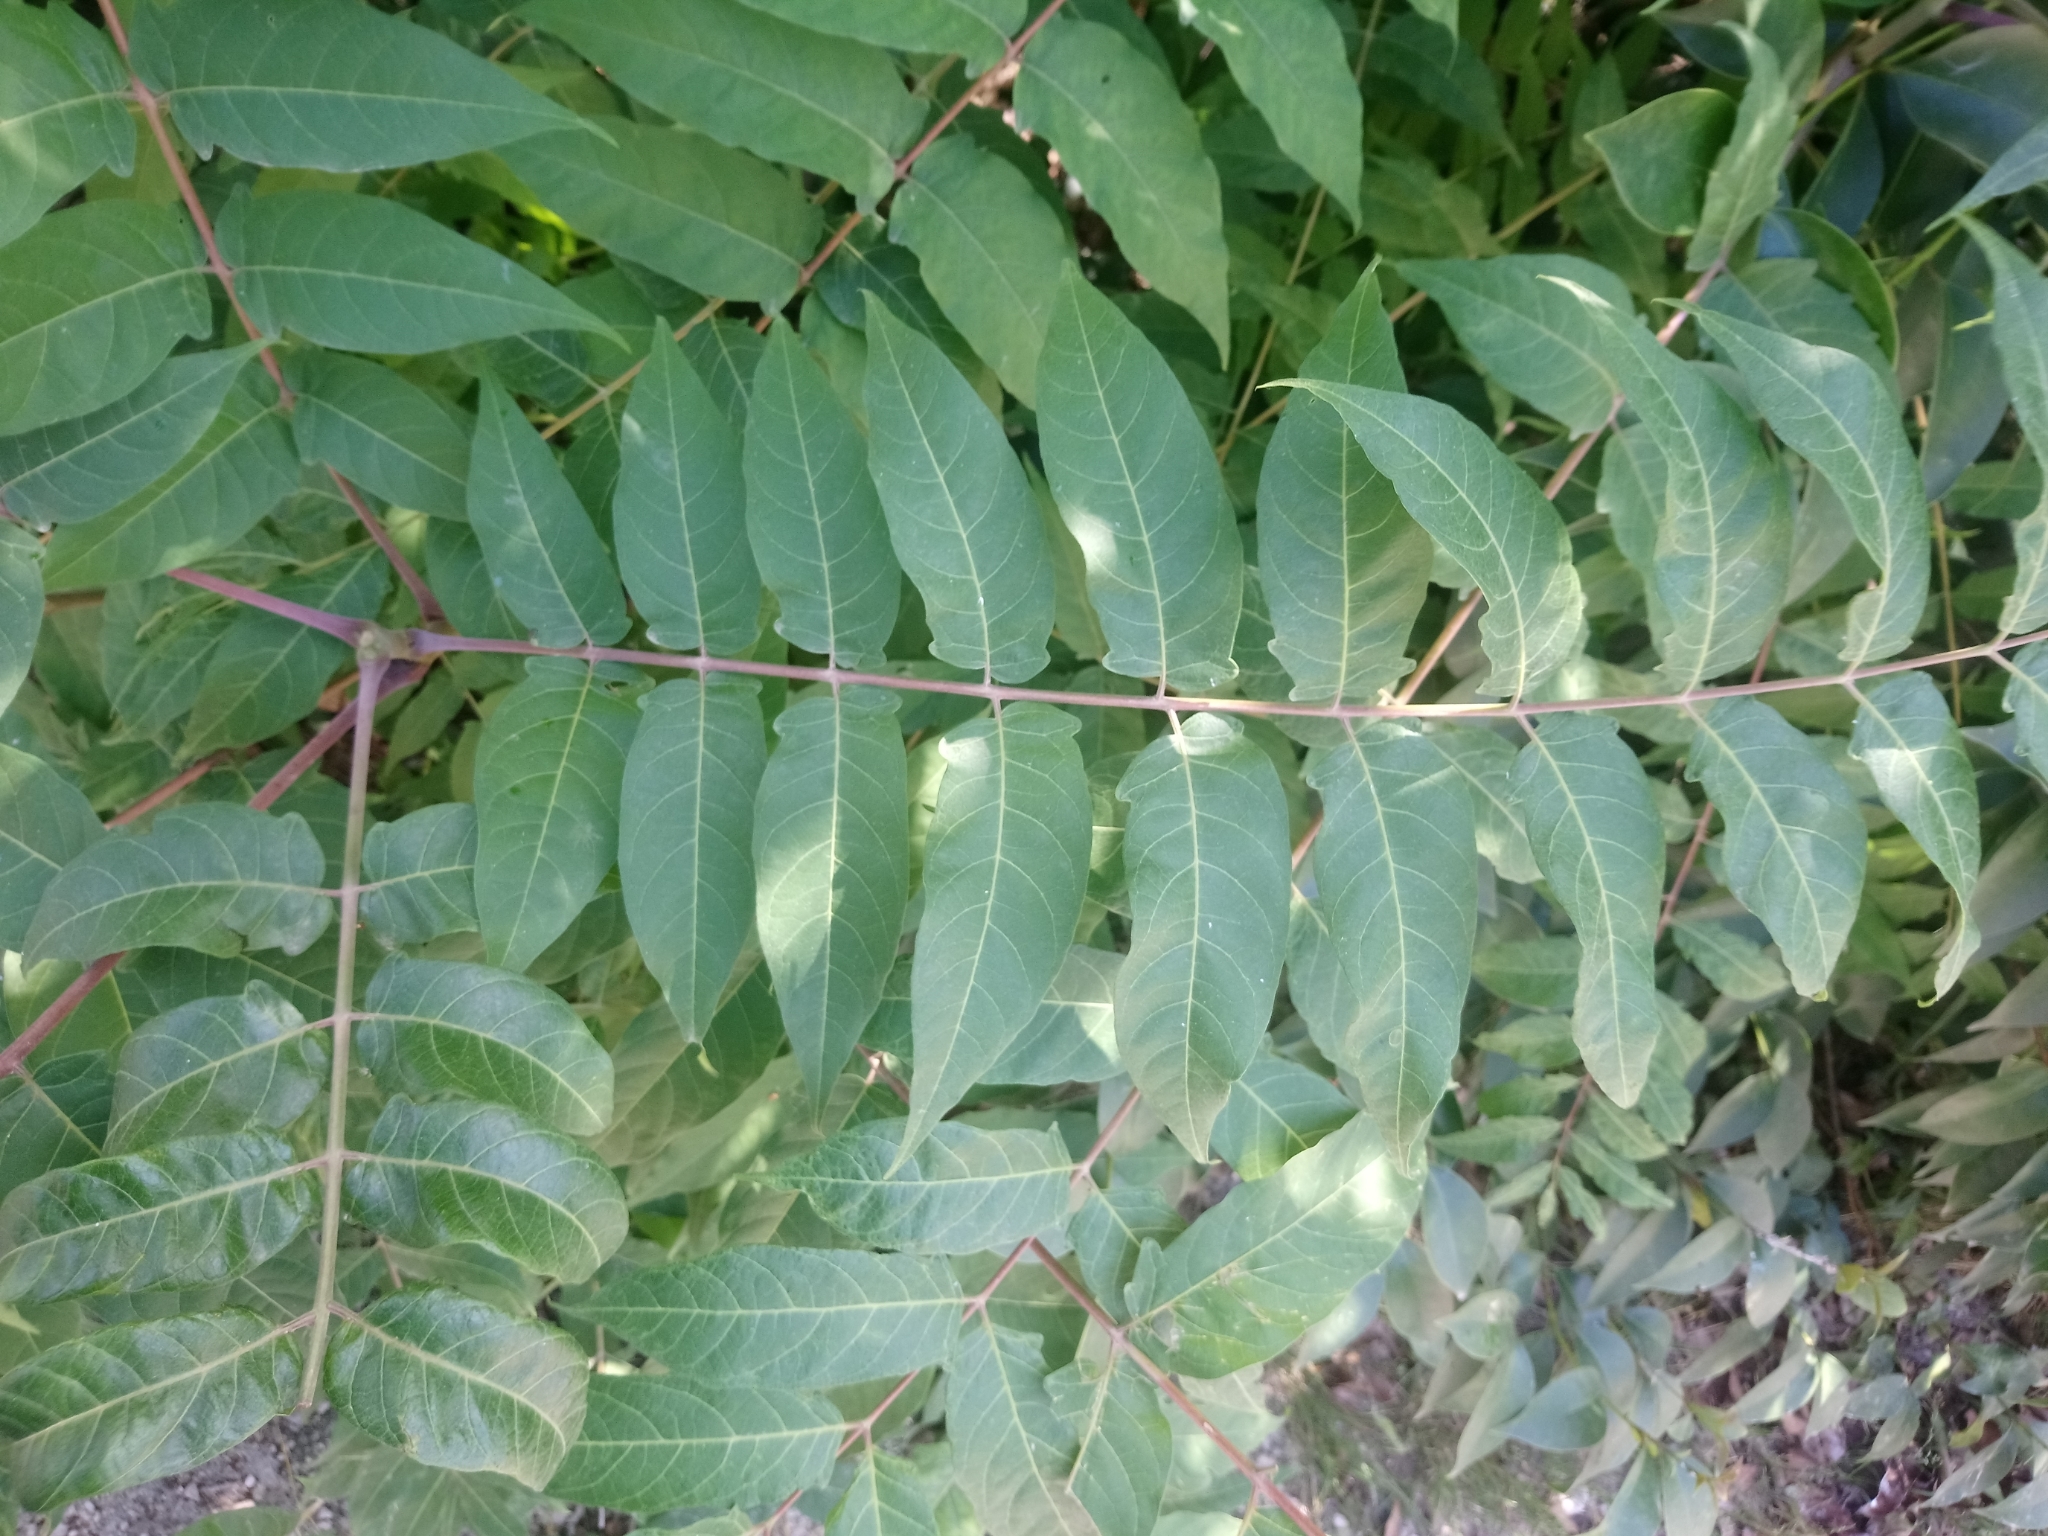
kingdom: Plantae
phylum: Tracheophyta
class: Magnoliopsida
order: Sapindales
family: Simaroubaceae
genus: Ailanthus
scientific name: Ailanthus altissima
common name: Tree-of-heaven
